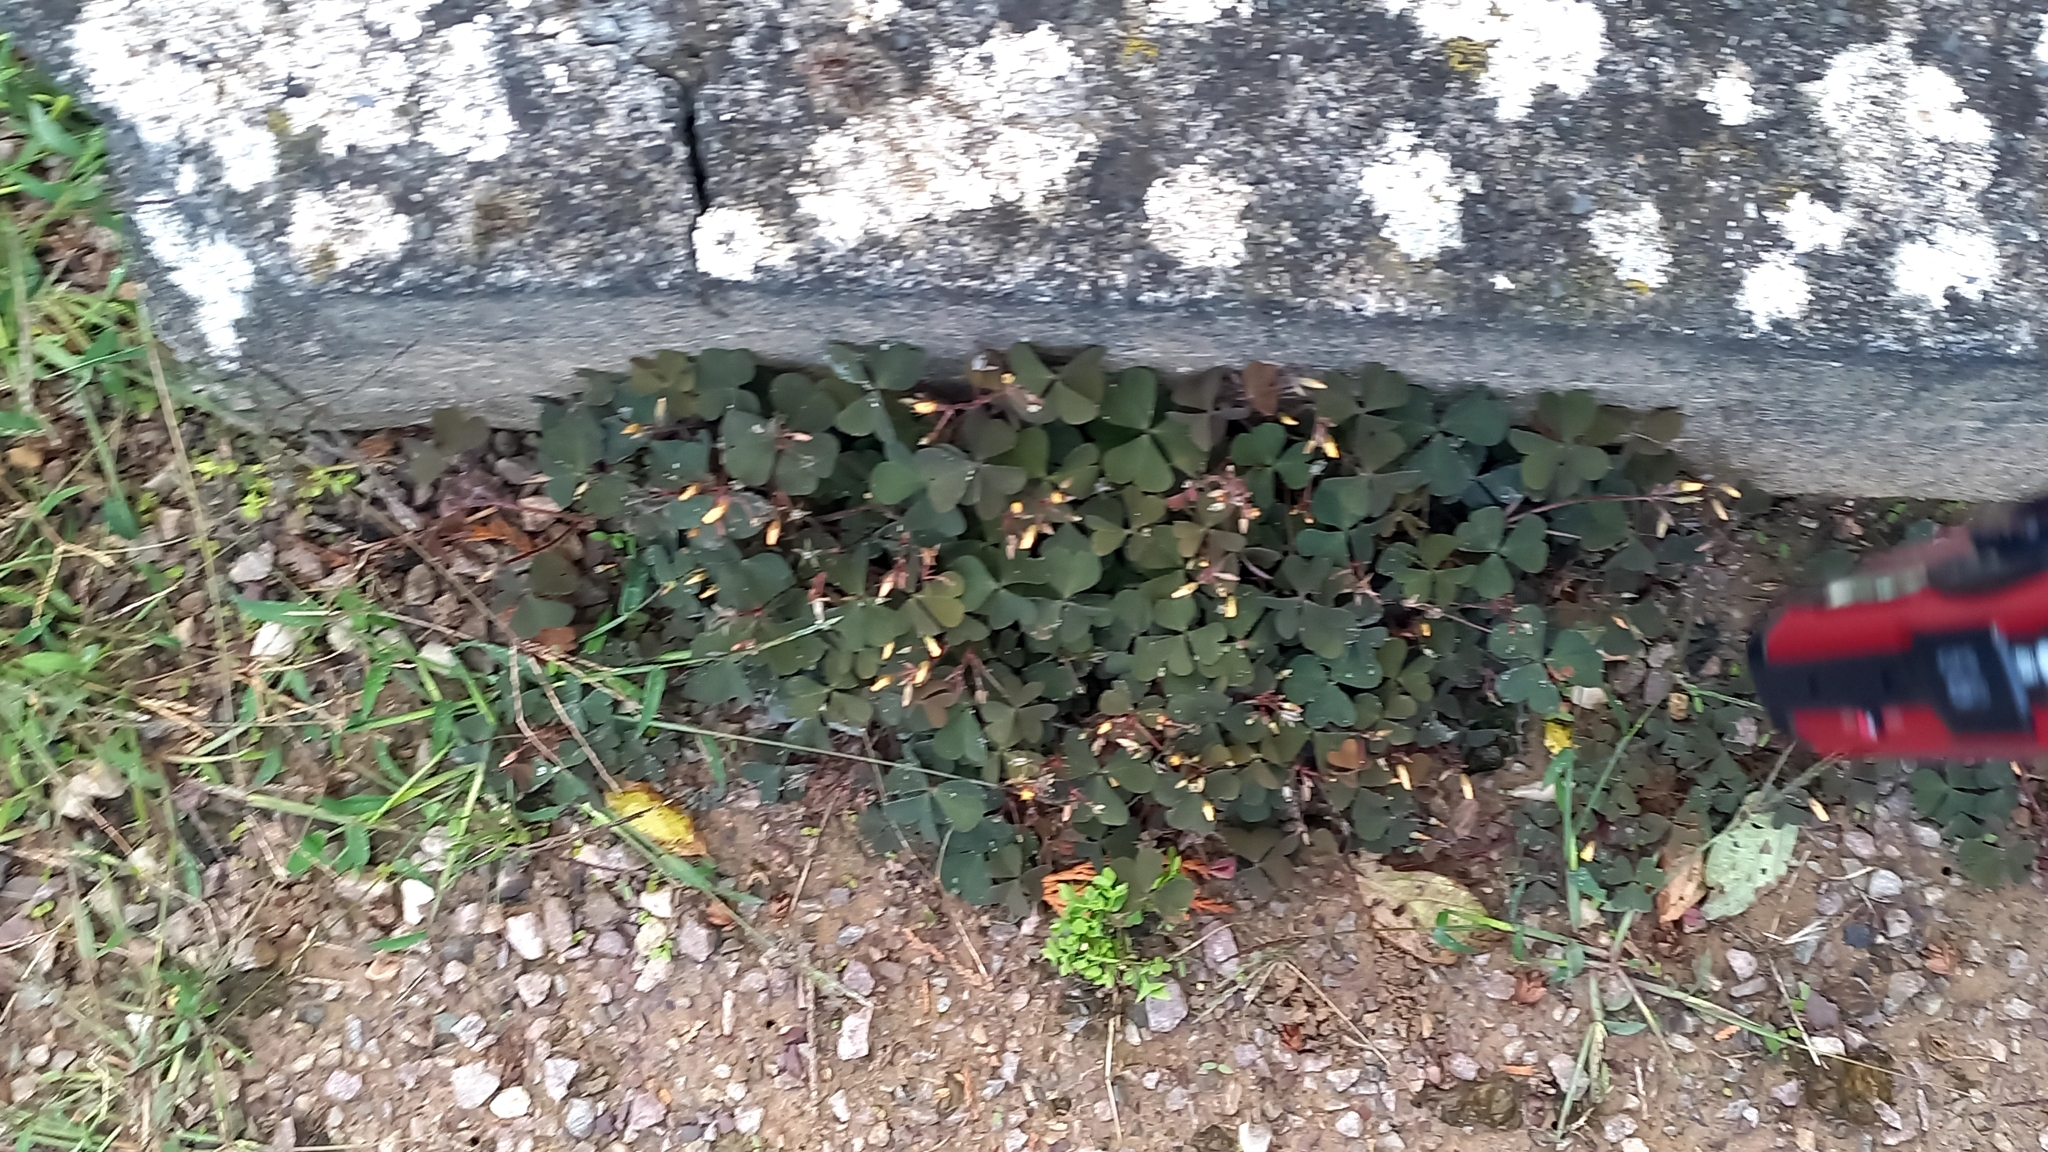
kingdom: Plantae
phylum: Tracheophyta
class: Magnoliopsida
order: Oxalidales
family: Oxalidaceae
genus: Oxalis
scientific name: Oxalis corniculata
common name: Procumbent yellow-sorrel
